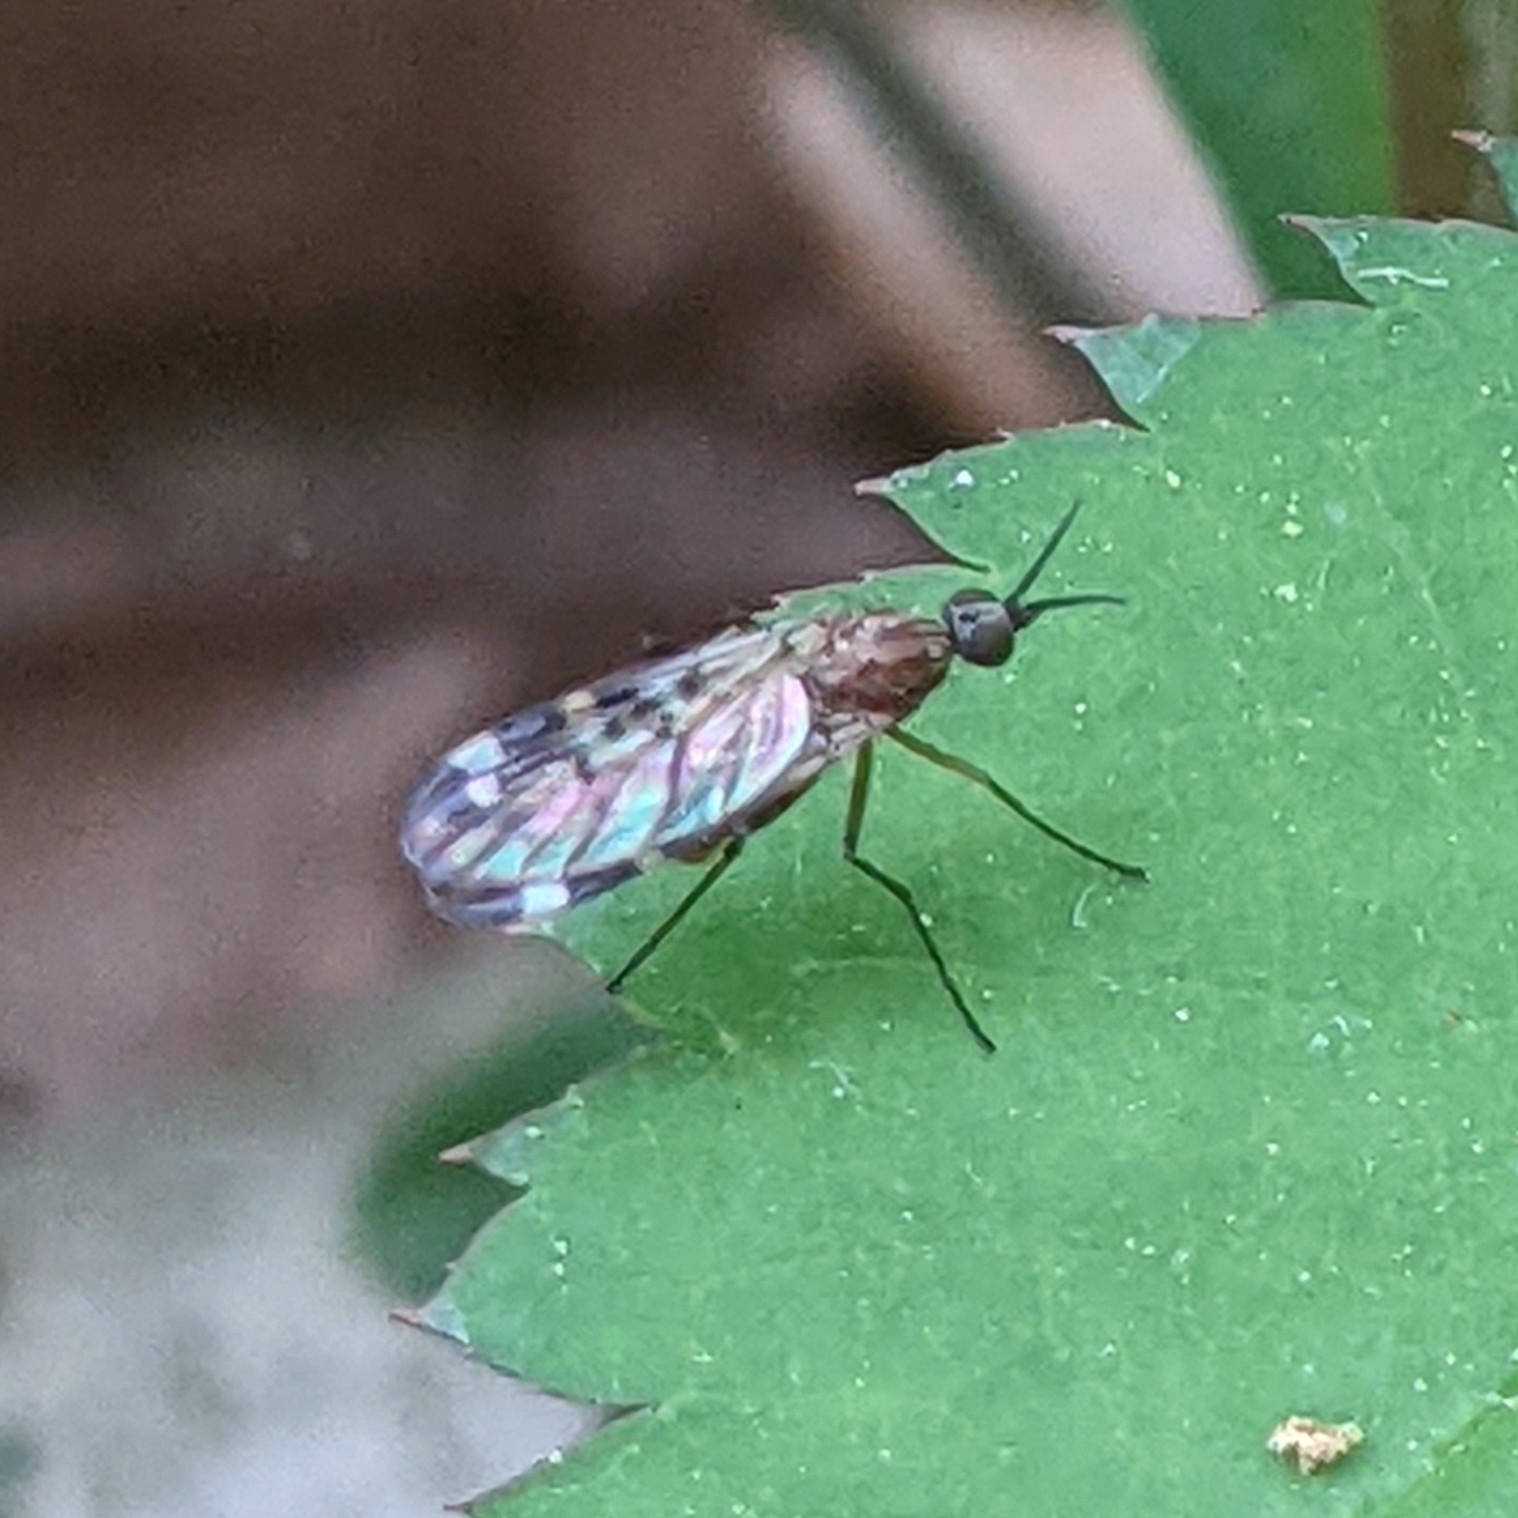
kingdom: Animalia
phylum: Arthropoda
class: Insecta
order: Diptera
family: Anisopodidae
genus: Sylvicola
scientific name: Sylvicola alternata
